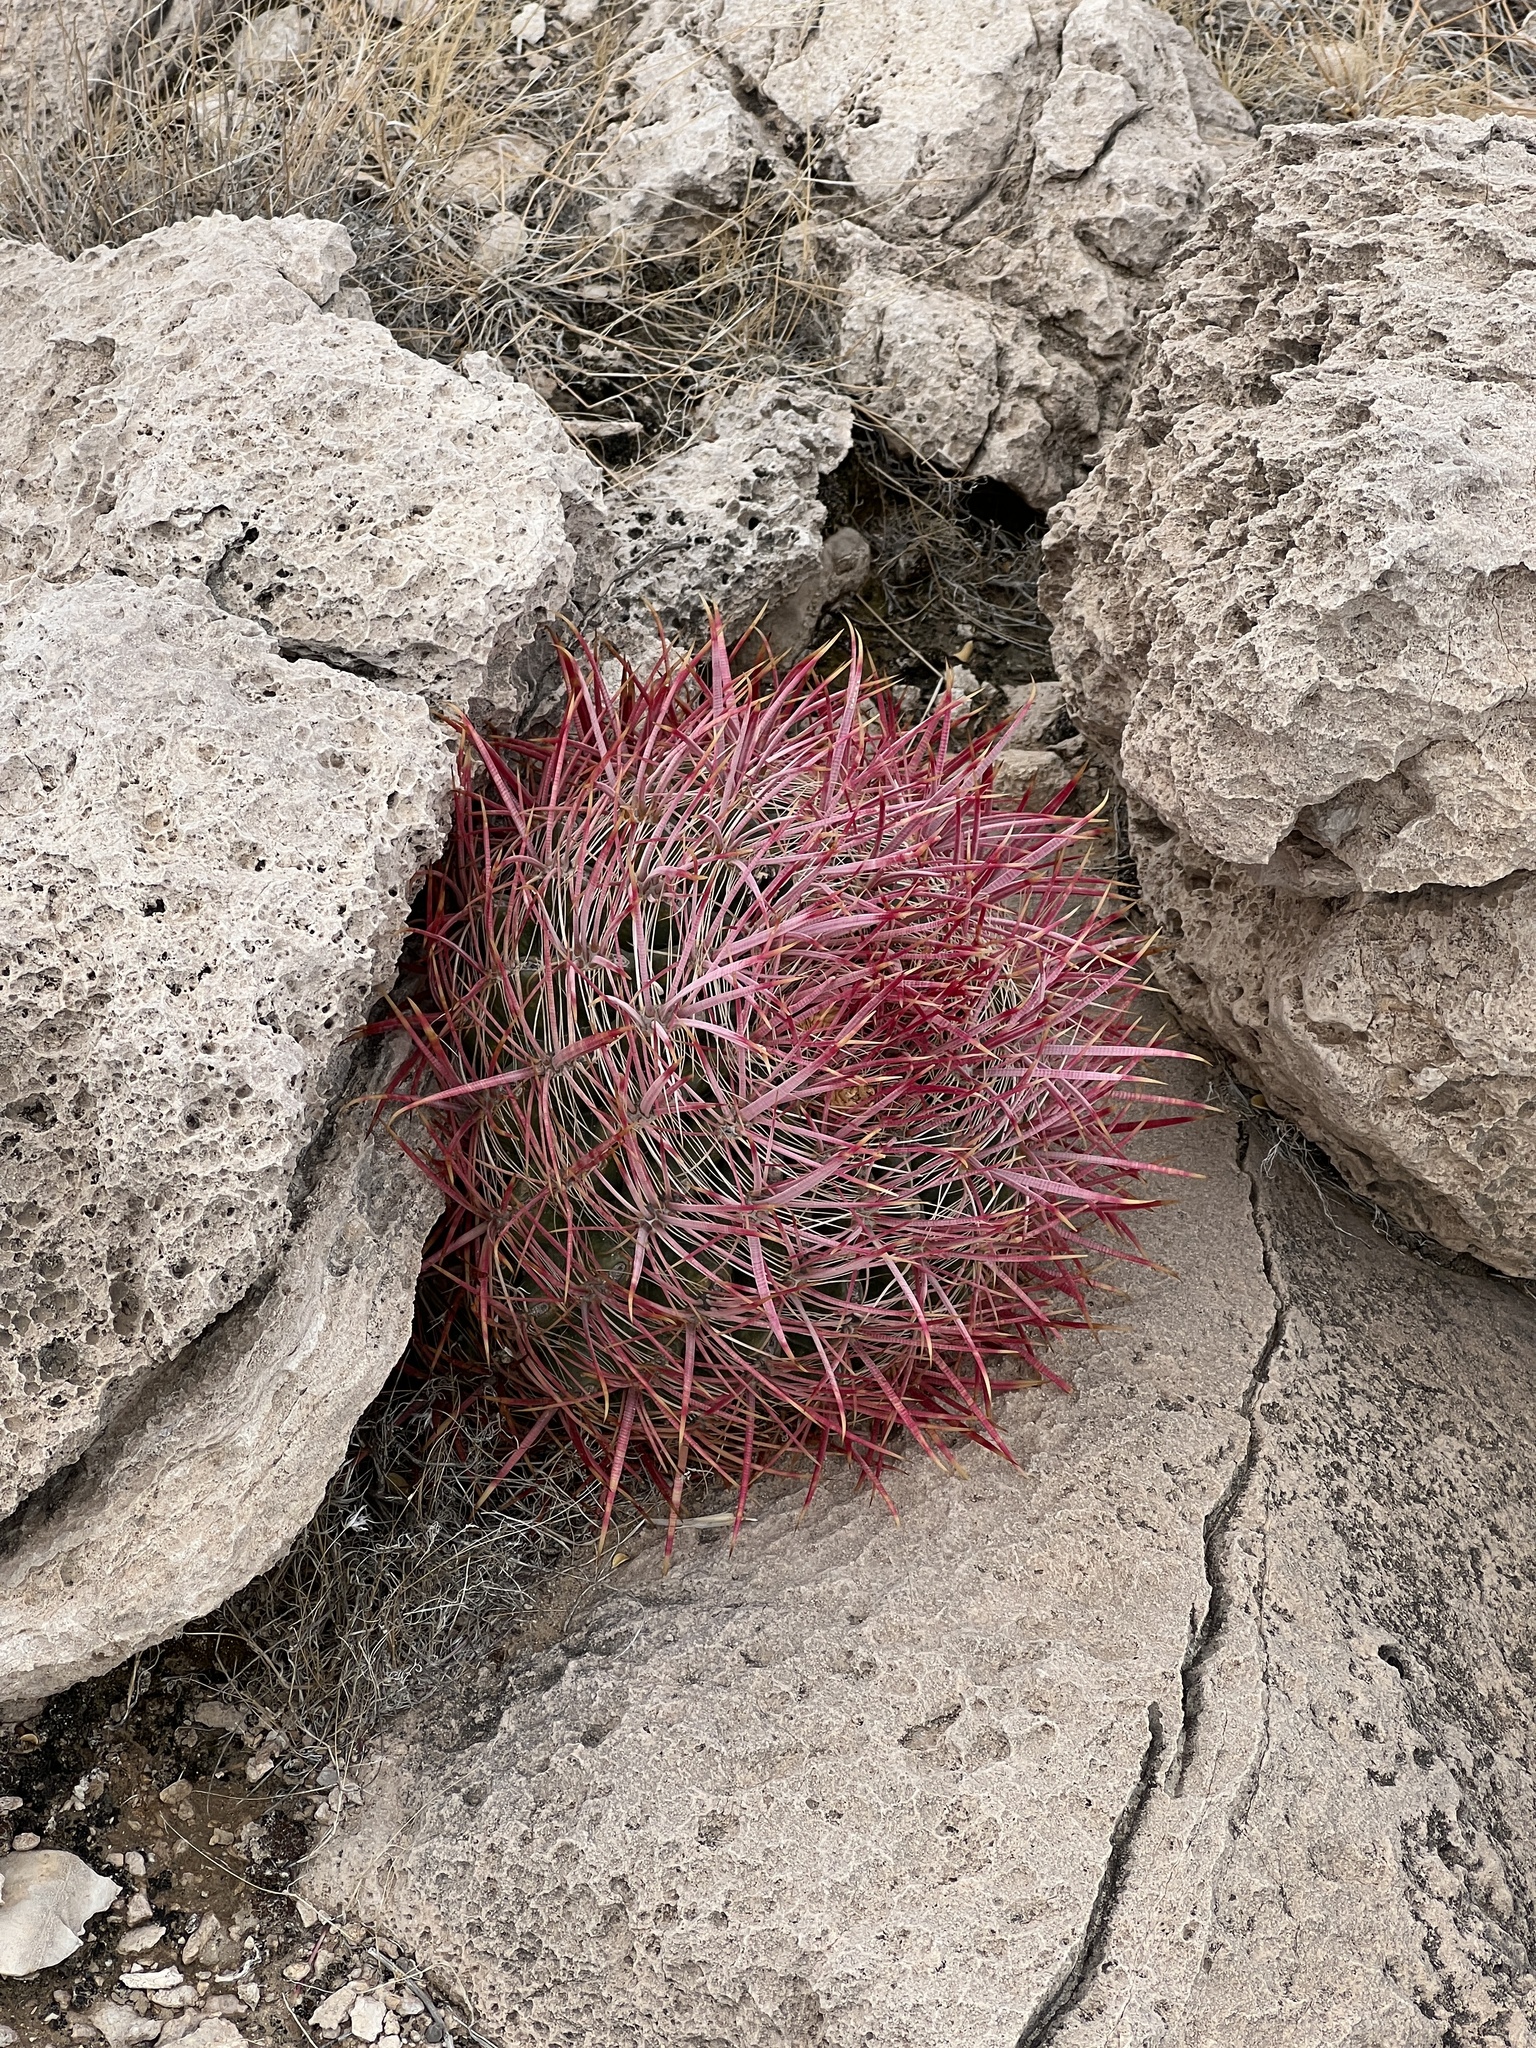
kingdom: Plantae
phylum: Tracheophyta
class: Magnoliopsida
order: Caryophyllales
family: Cactaceae
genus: Ferocactus
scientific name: Ferocactus cylindraceus
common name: California barrel cactus
